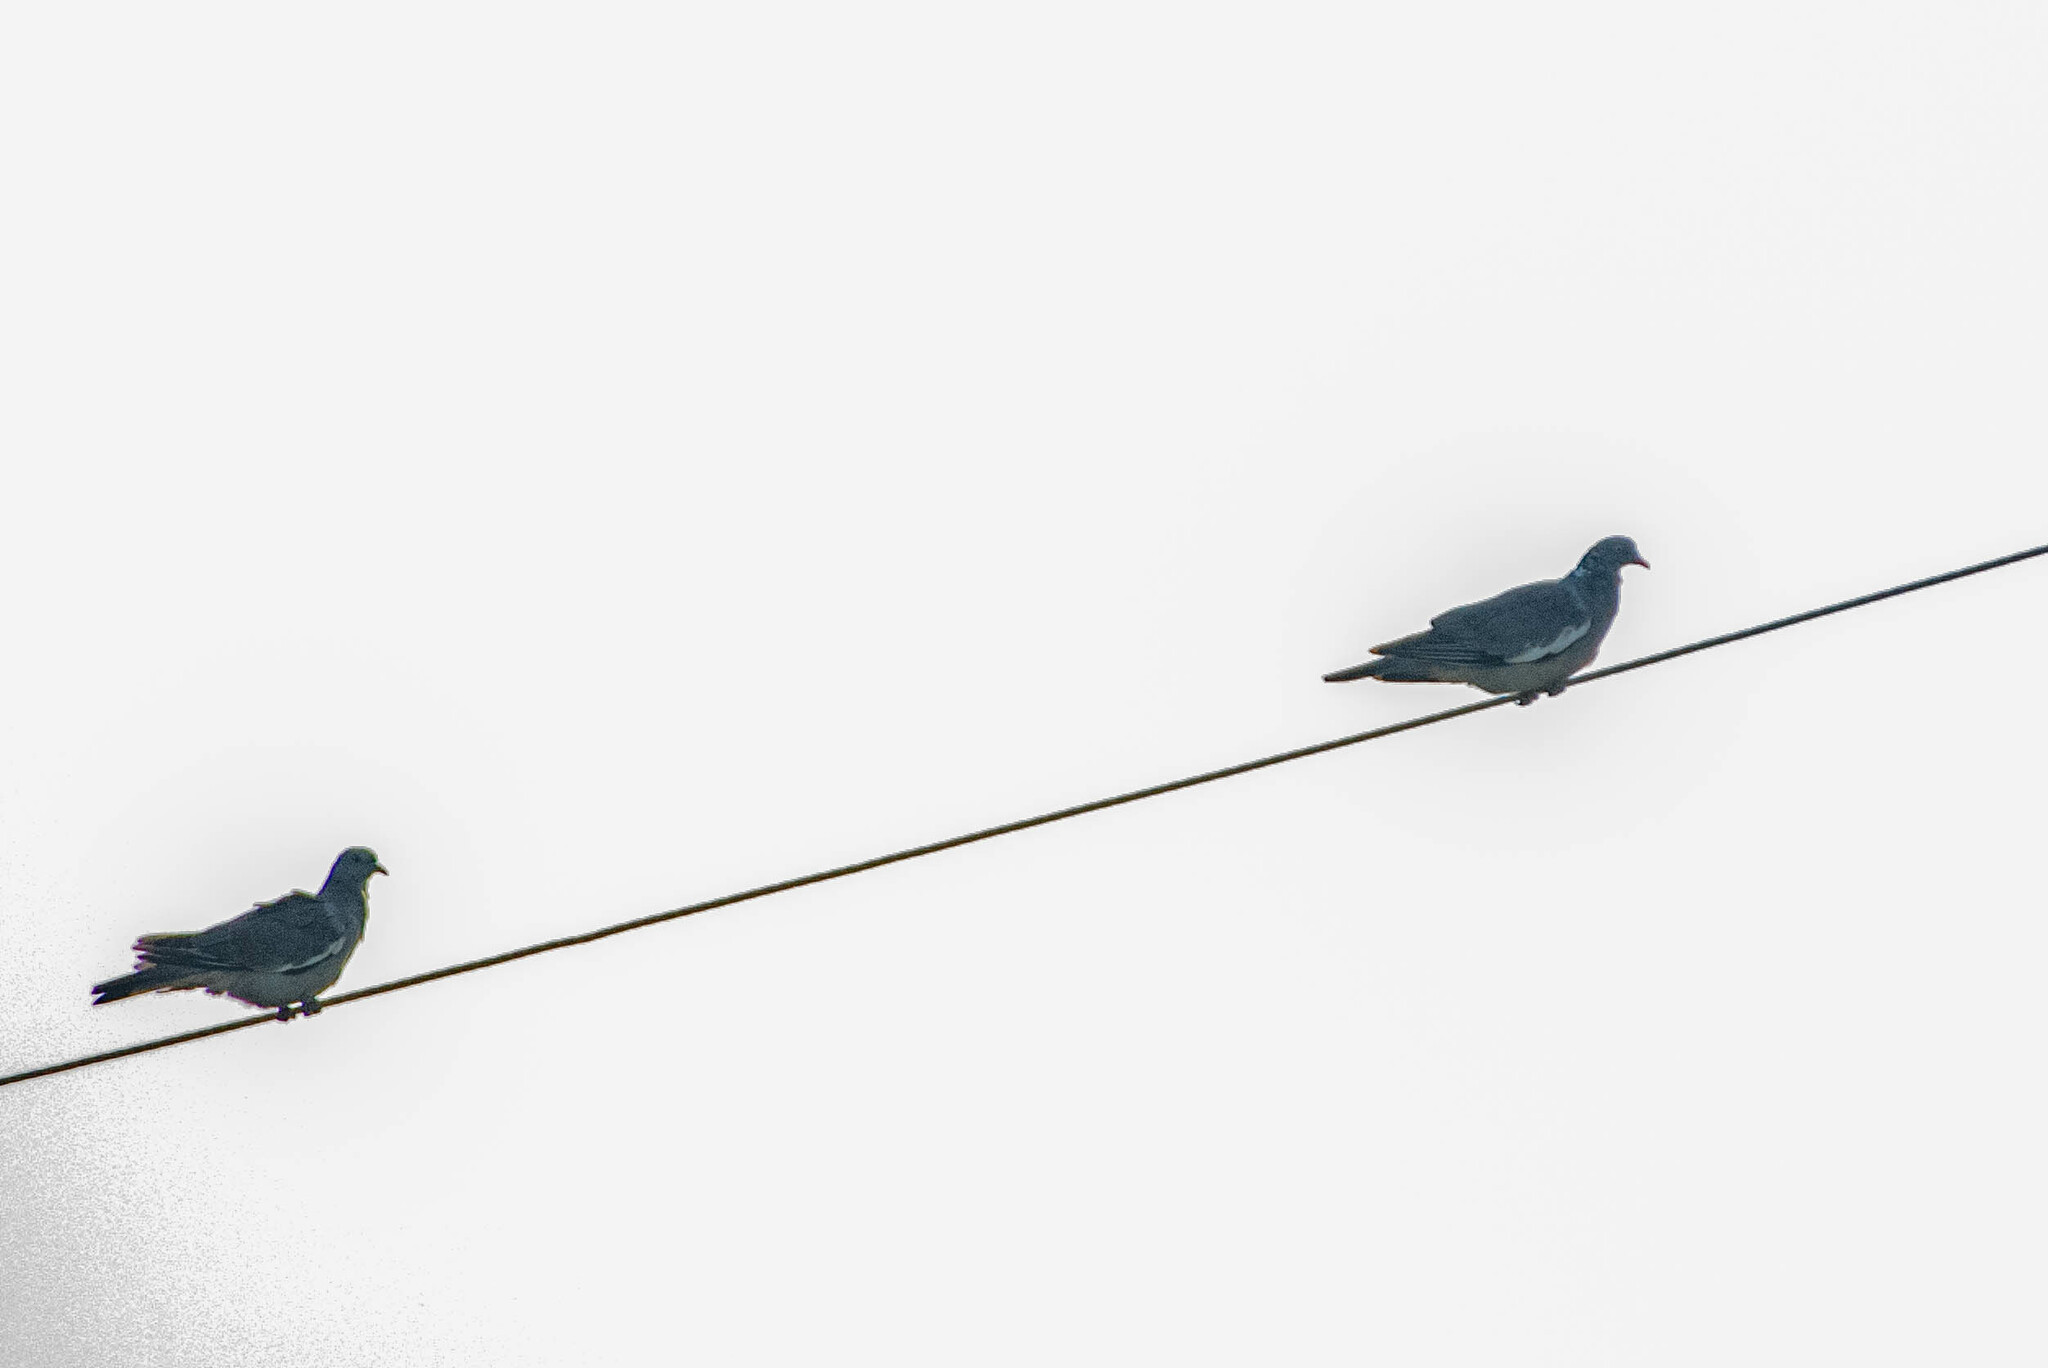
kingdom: Animalia
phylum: Chordata
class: Aves
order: Columbiformes
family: Columbidae
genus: Columba
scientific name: Columba palumbus
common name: Common wood pigeon
